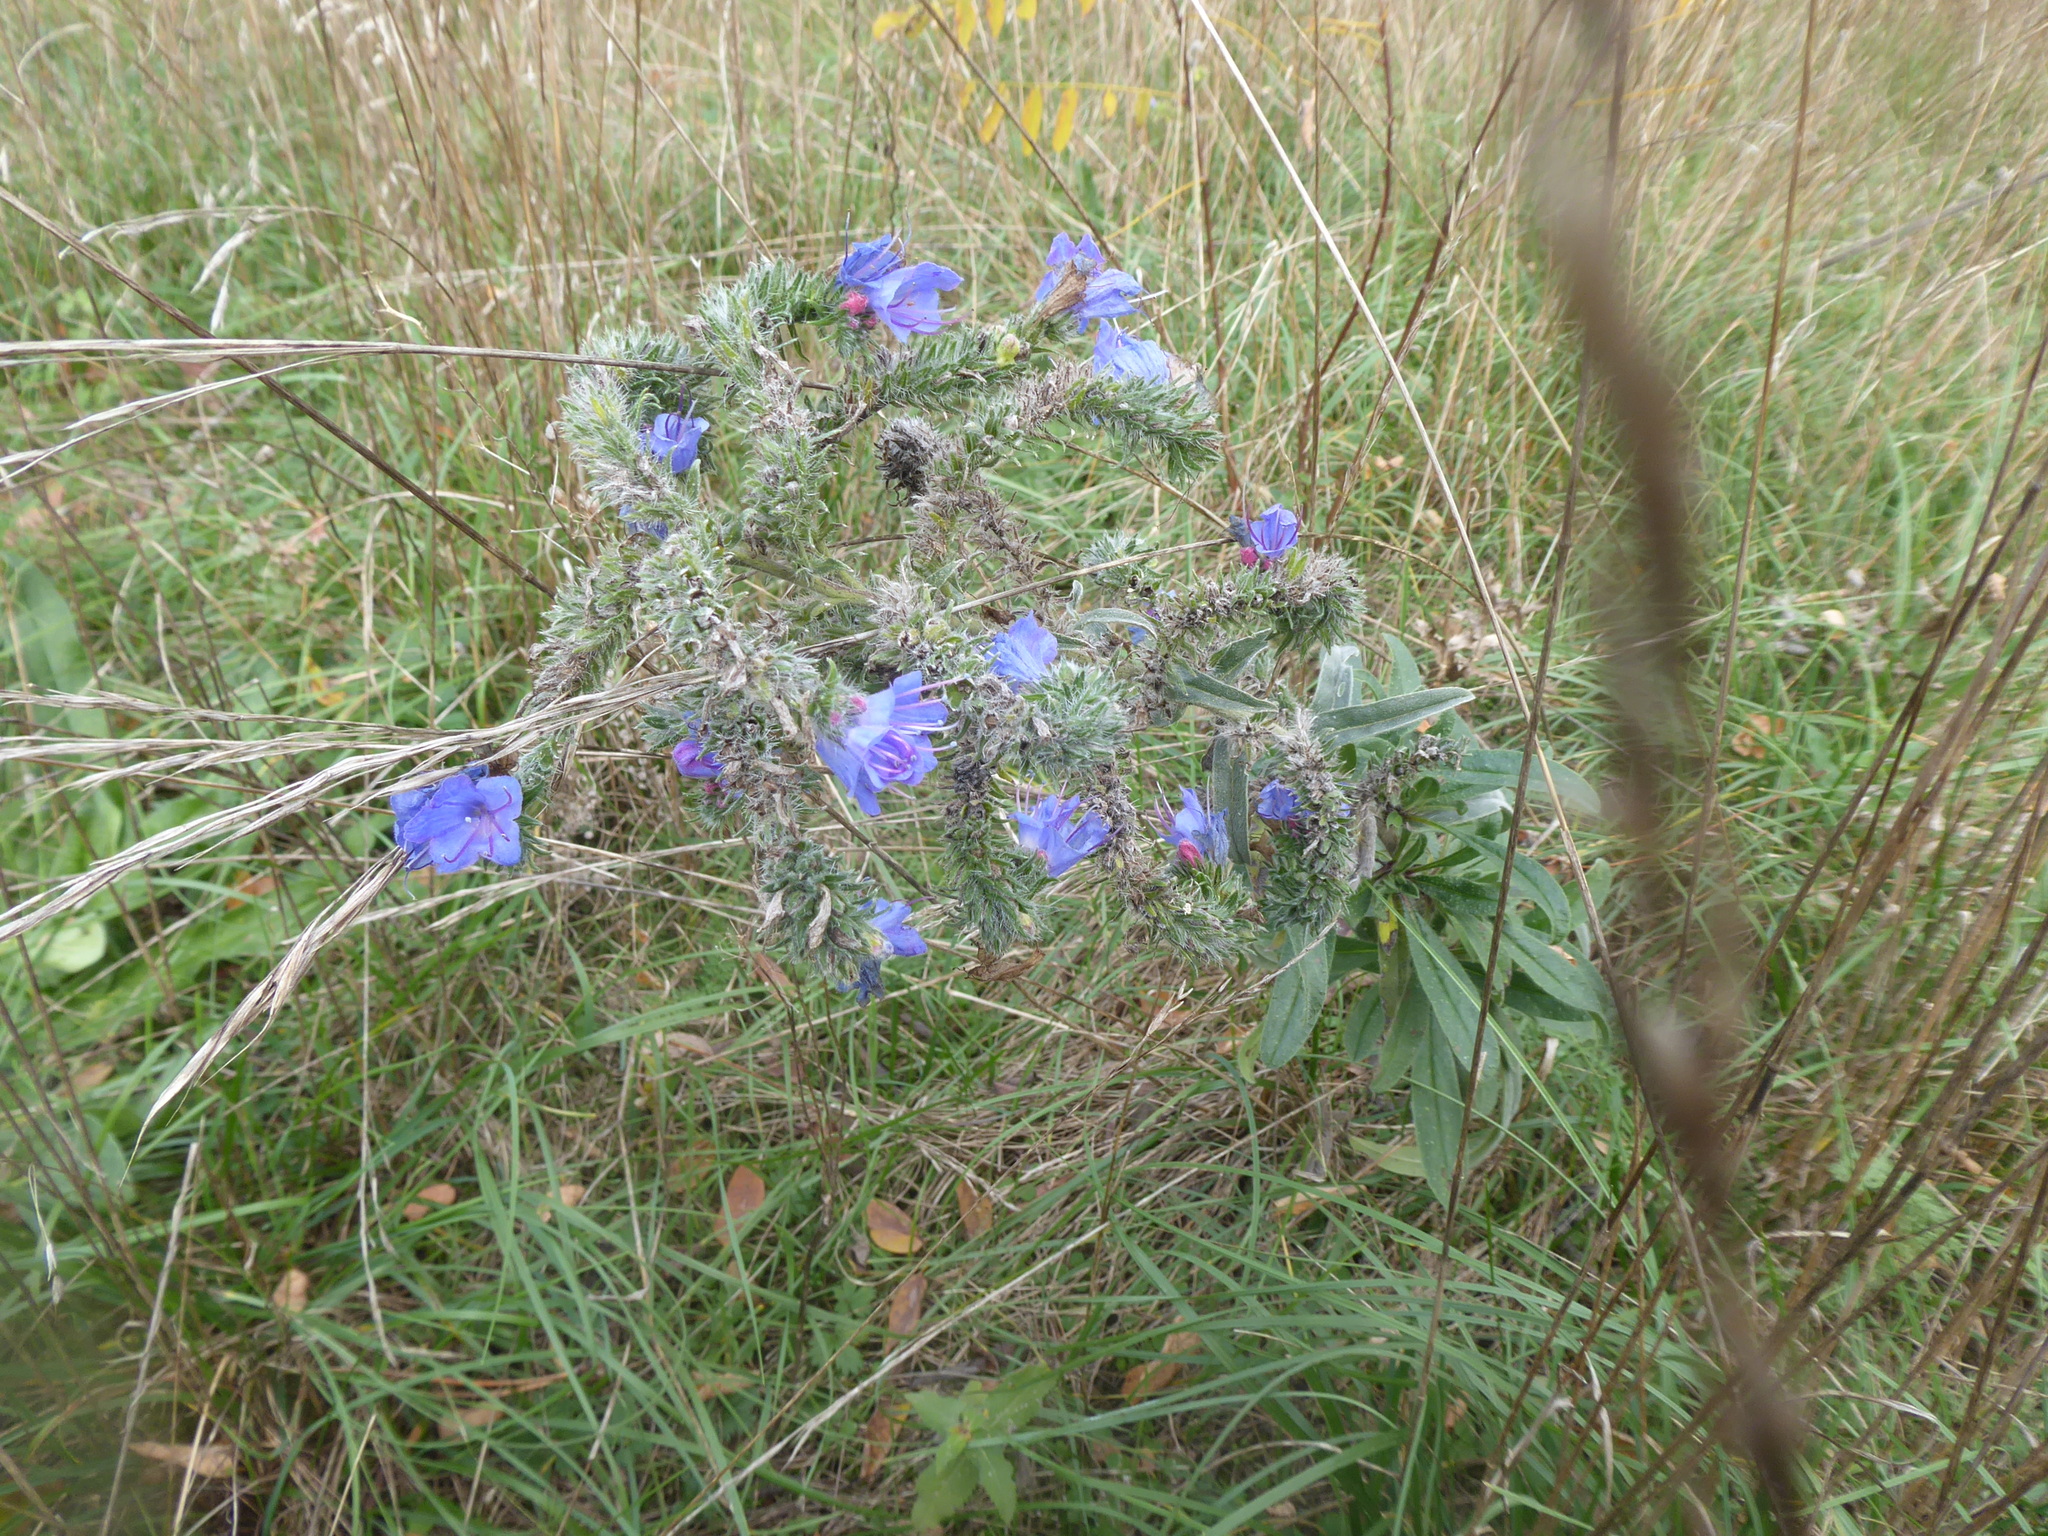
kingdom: Plantae
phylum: Tracheophyta
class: Magnoliopsida
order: Boraginales
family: Boraginaceae
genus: Echium
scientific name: Echium vulgare
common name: Common viper's bugloss
